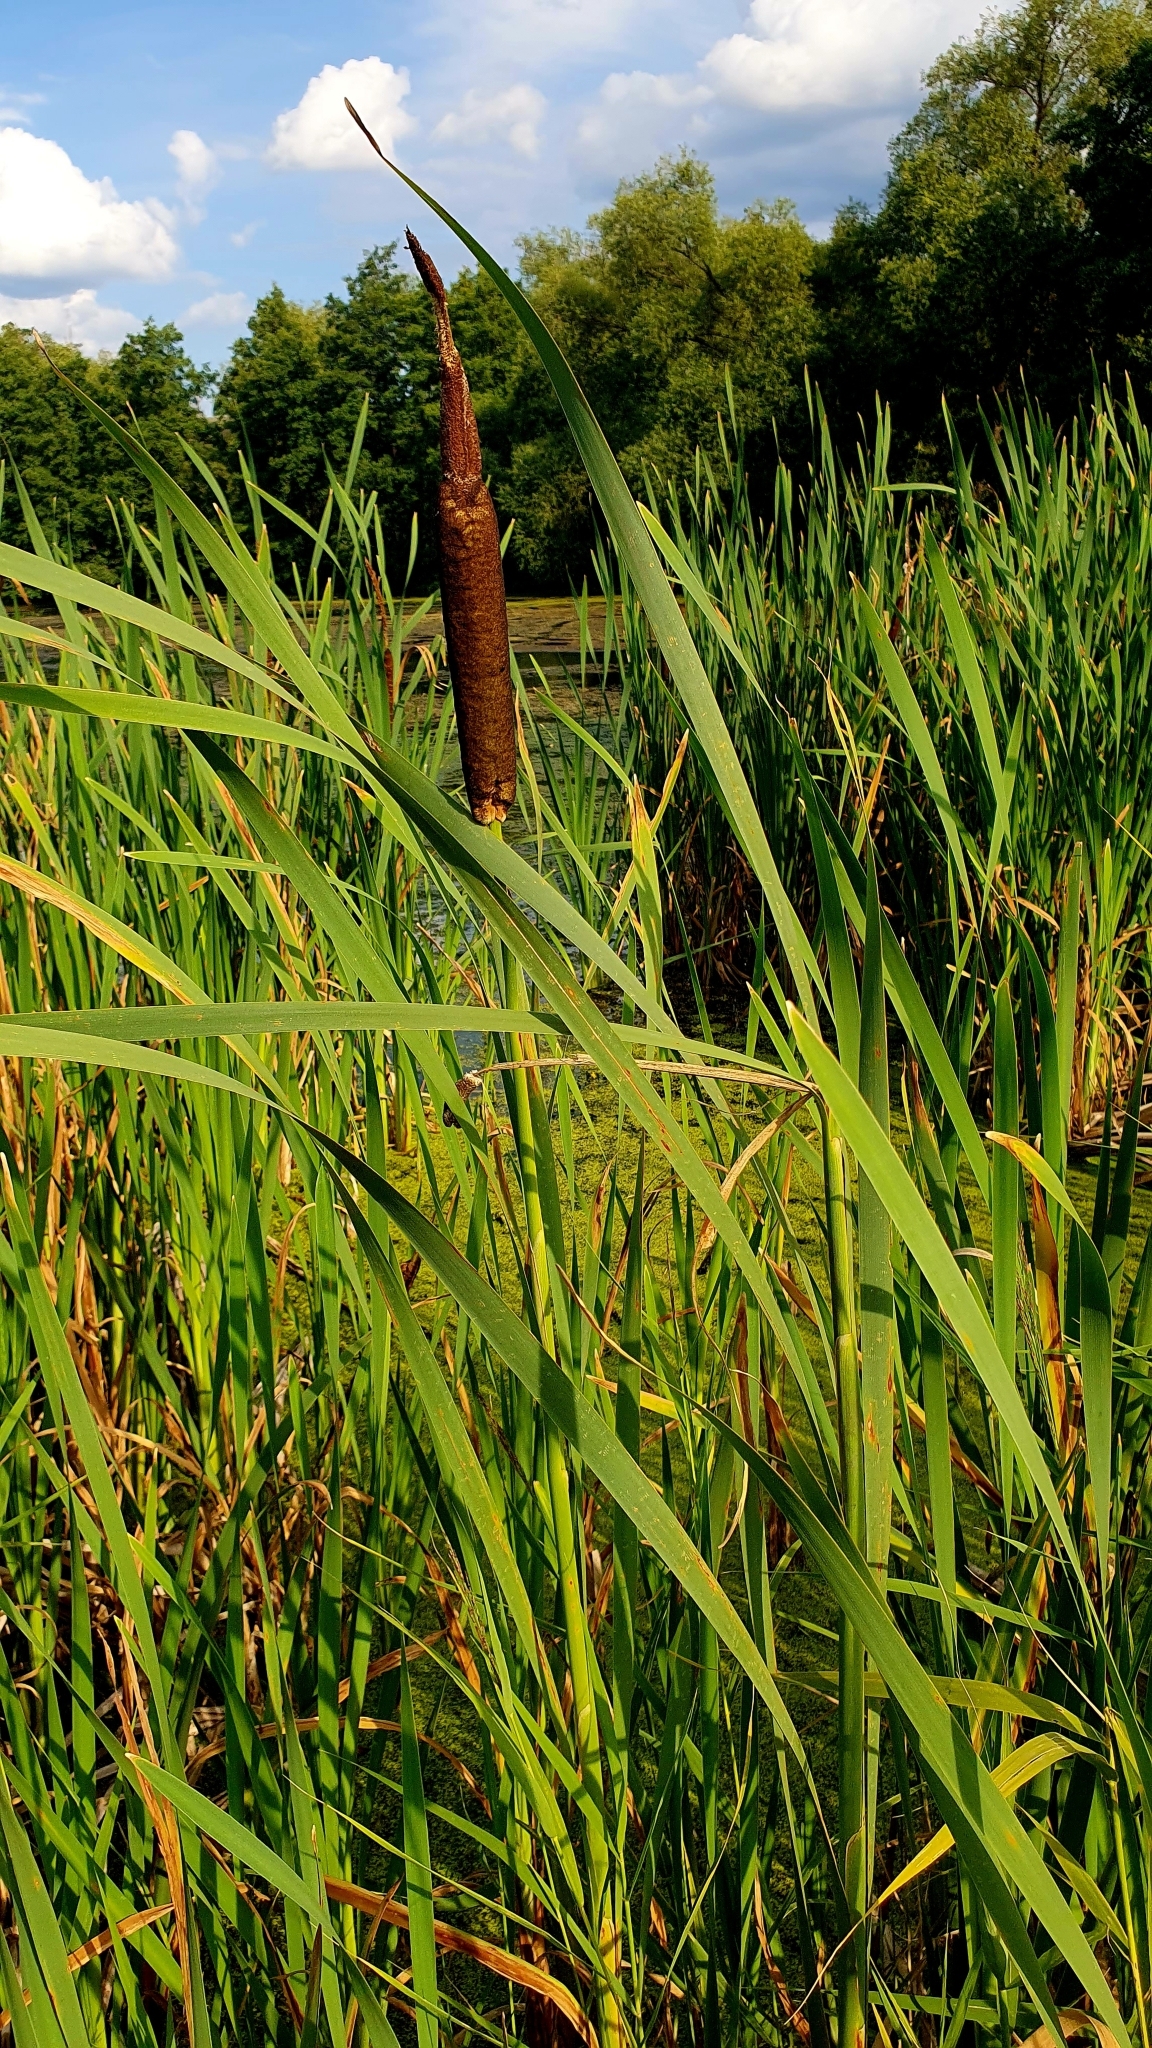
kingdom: Plantae
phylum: Tracheophyta
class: Liliopsida
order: Poales
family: Typhaceae
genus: Typha
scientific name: Typha latifolia
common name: Broadleaf cattail
